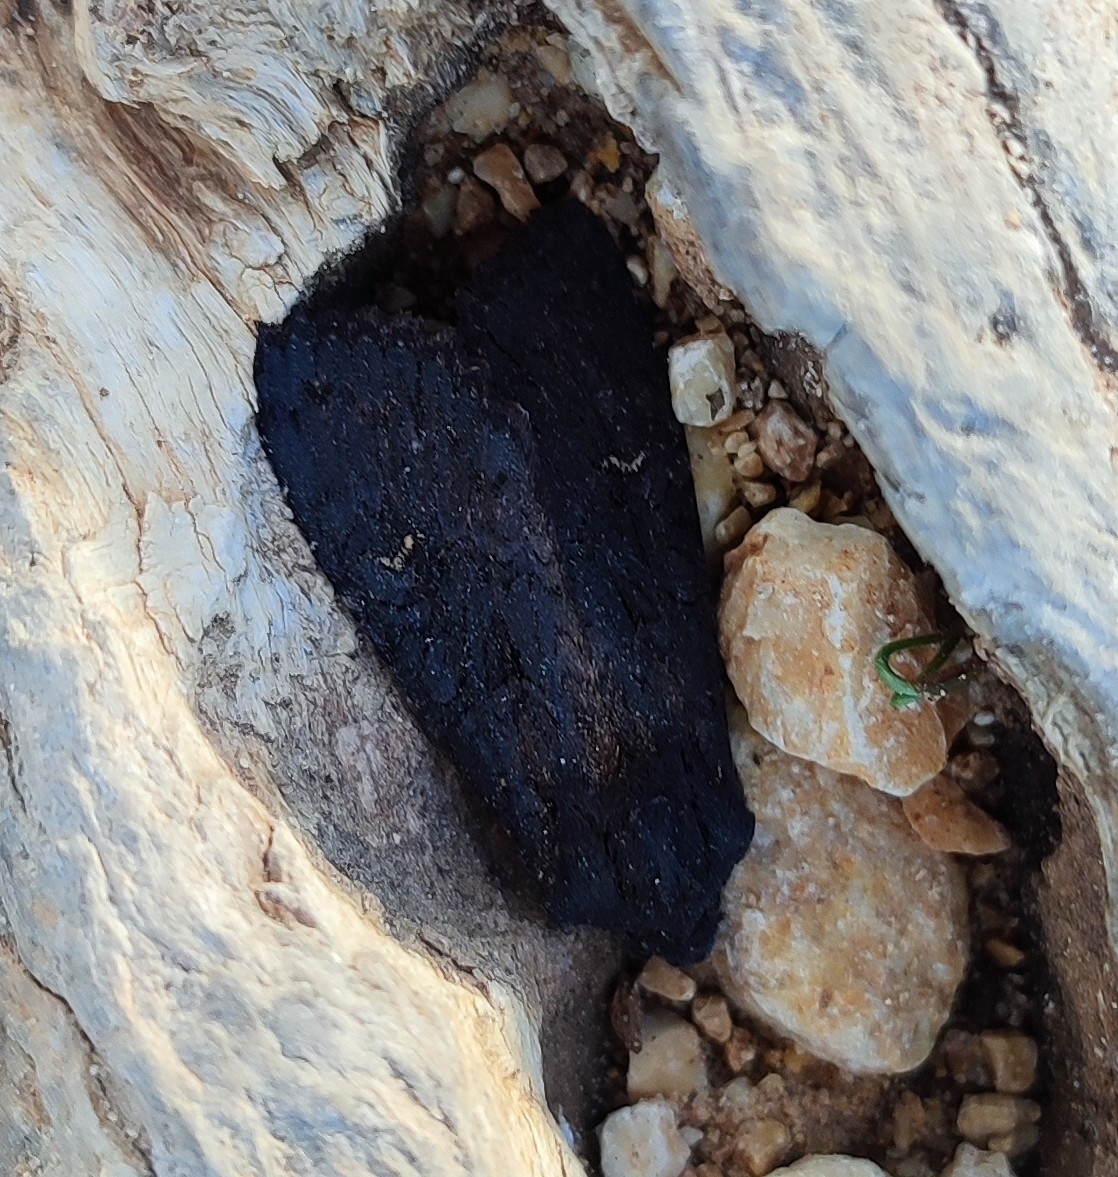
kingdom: Animalia
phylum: Arthropoda
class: Insecta
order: Lepidoptera
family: Noctuidae
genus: Aporophyla
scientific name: Aporophyla nigra
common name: Black rustic
